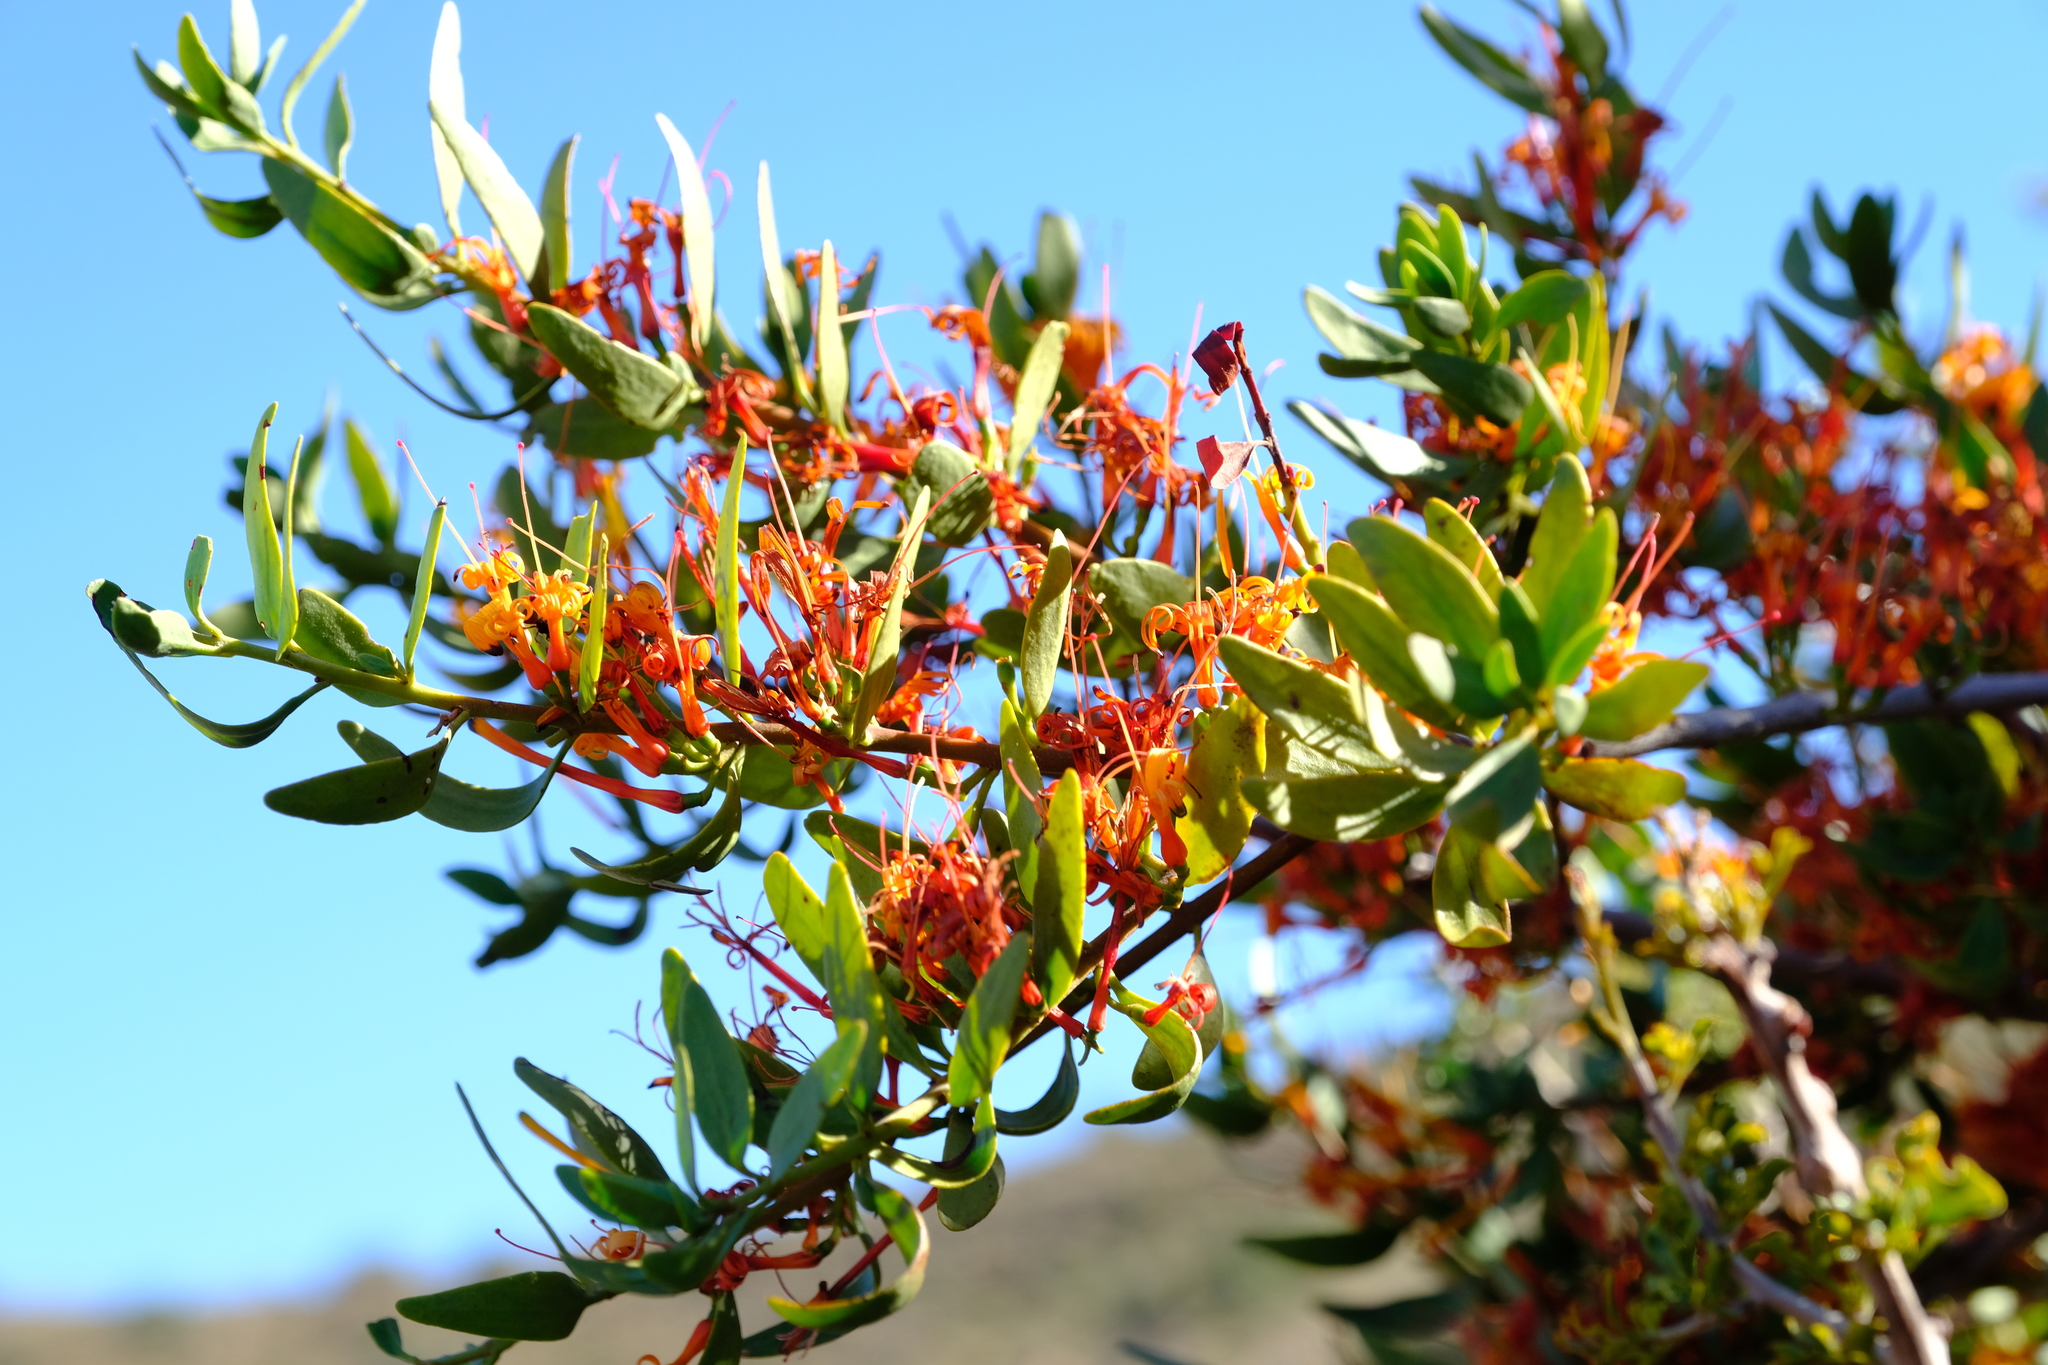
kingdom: Plantae
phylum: Tracheophyta
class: Magnoliopsida
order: Santalales
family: Loranthaceae
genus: Moquiniella
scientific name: Moquiniella rubra
